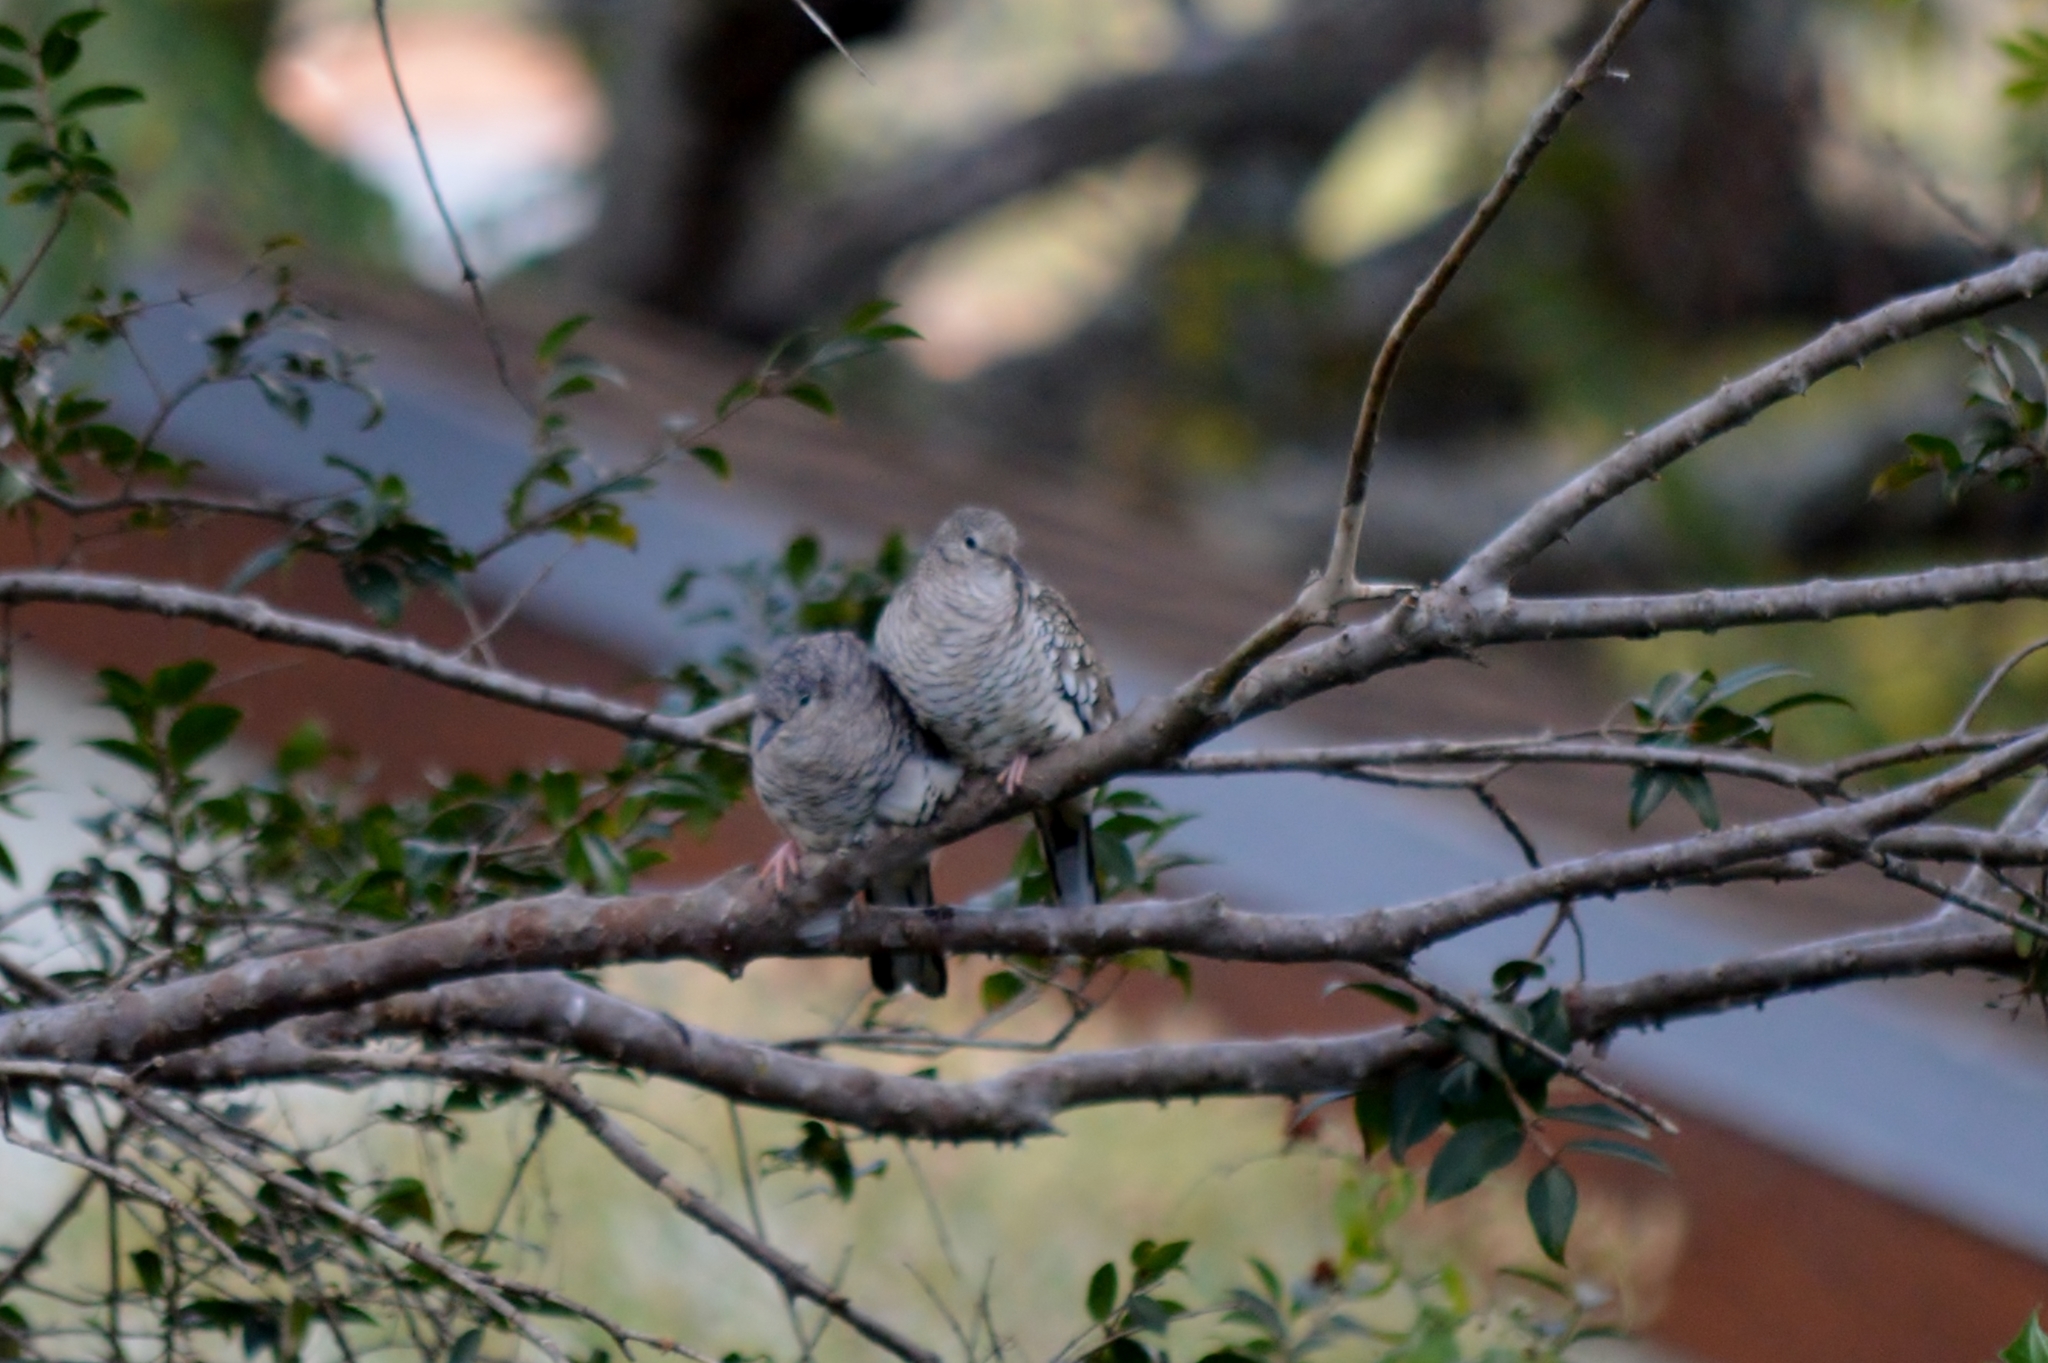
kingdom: Animalia
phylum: Chordata
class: Aves
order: Columbiformes
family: Columbidae
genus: Columbina
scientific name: Columbina squammata
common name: Scaled dove
